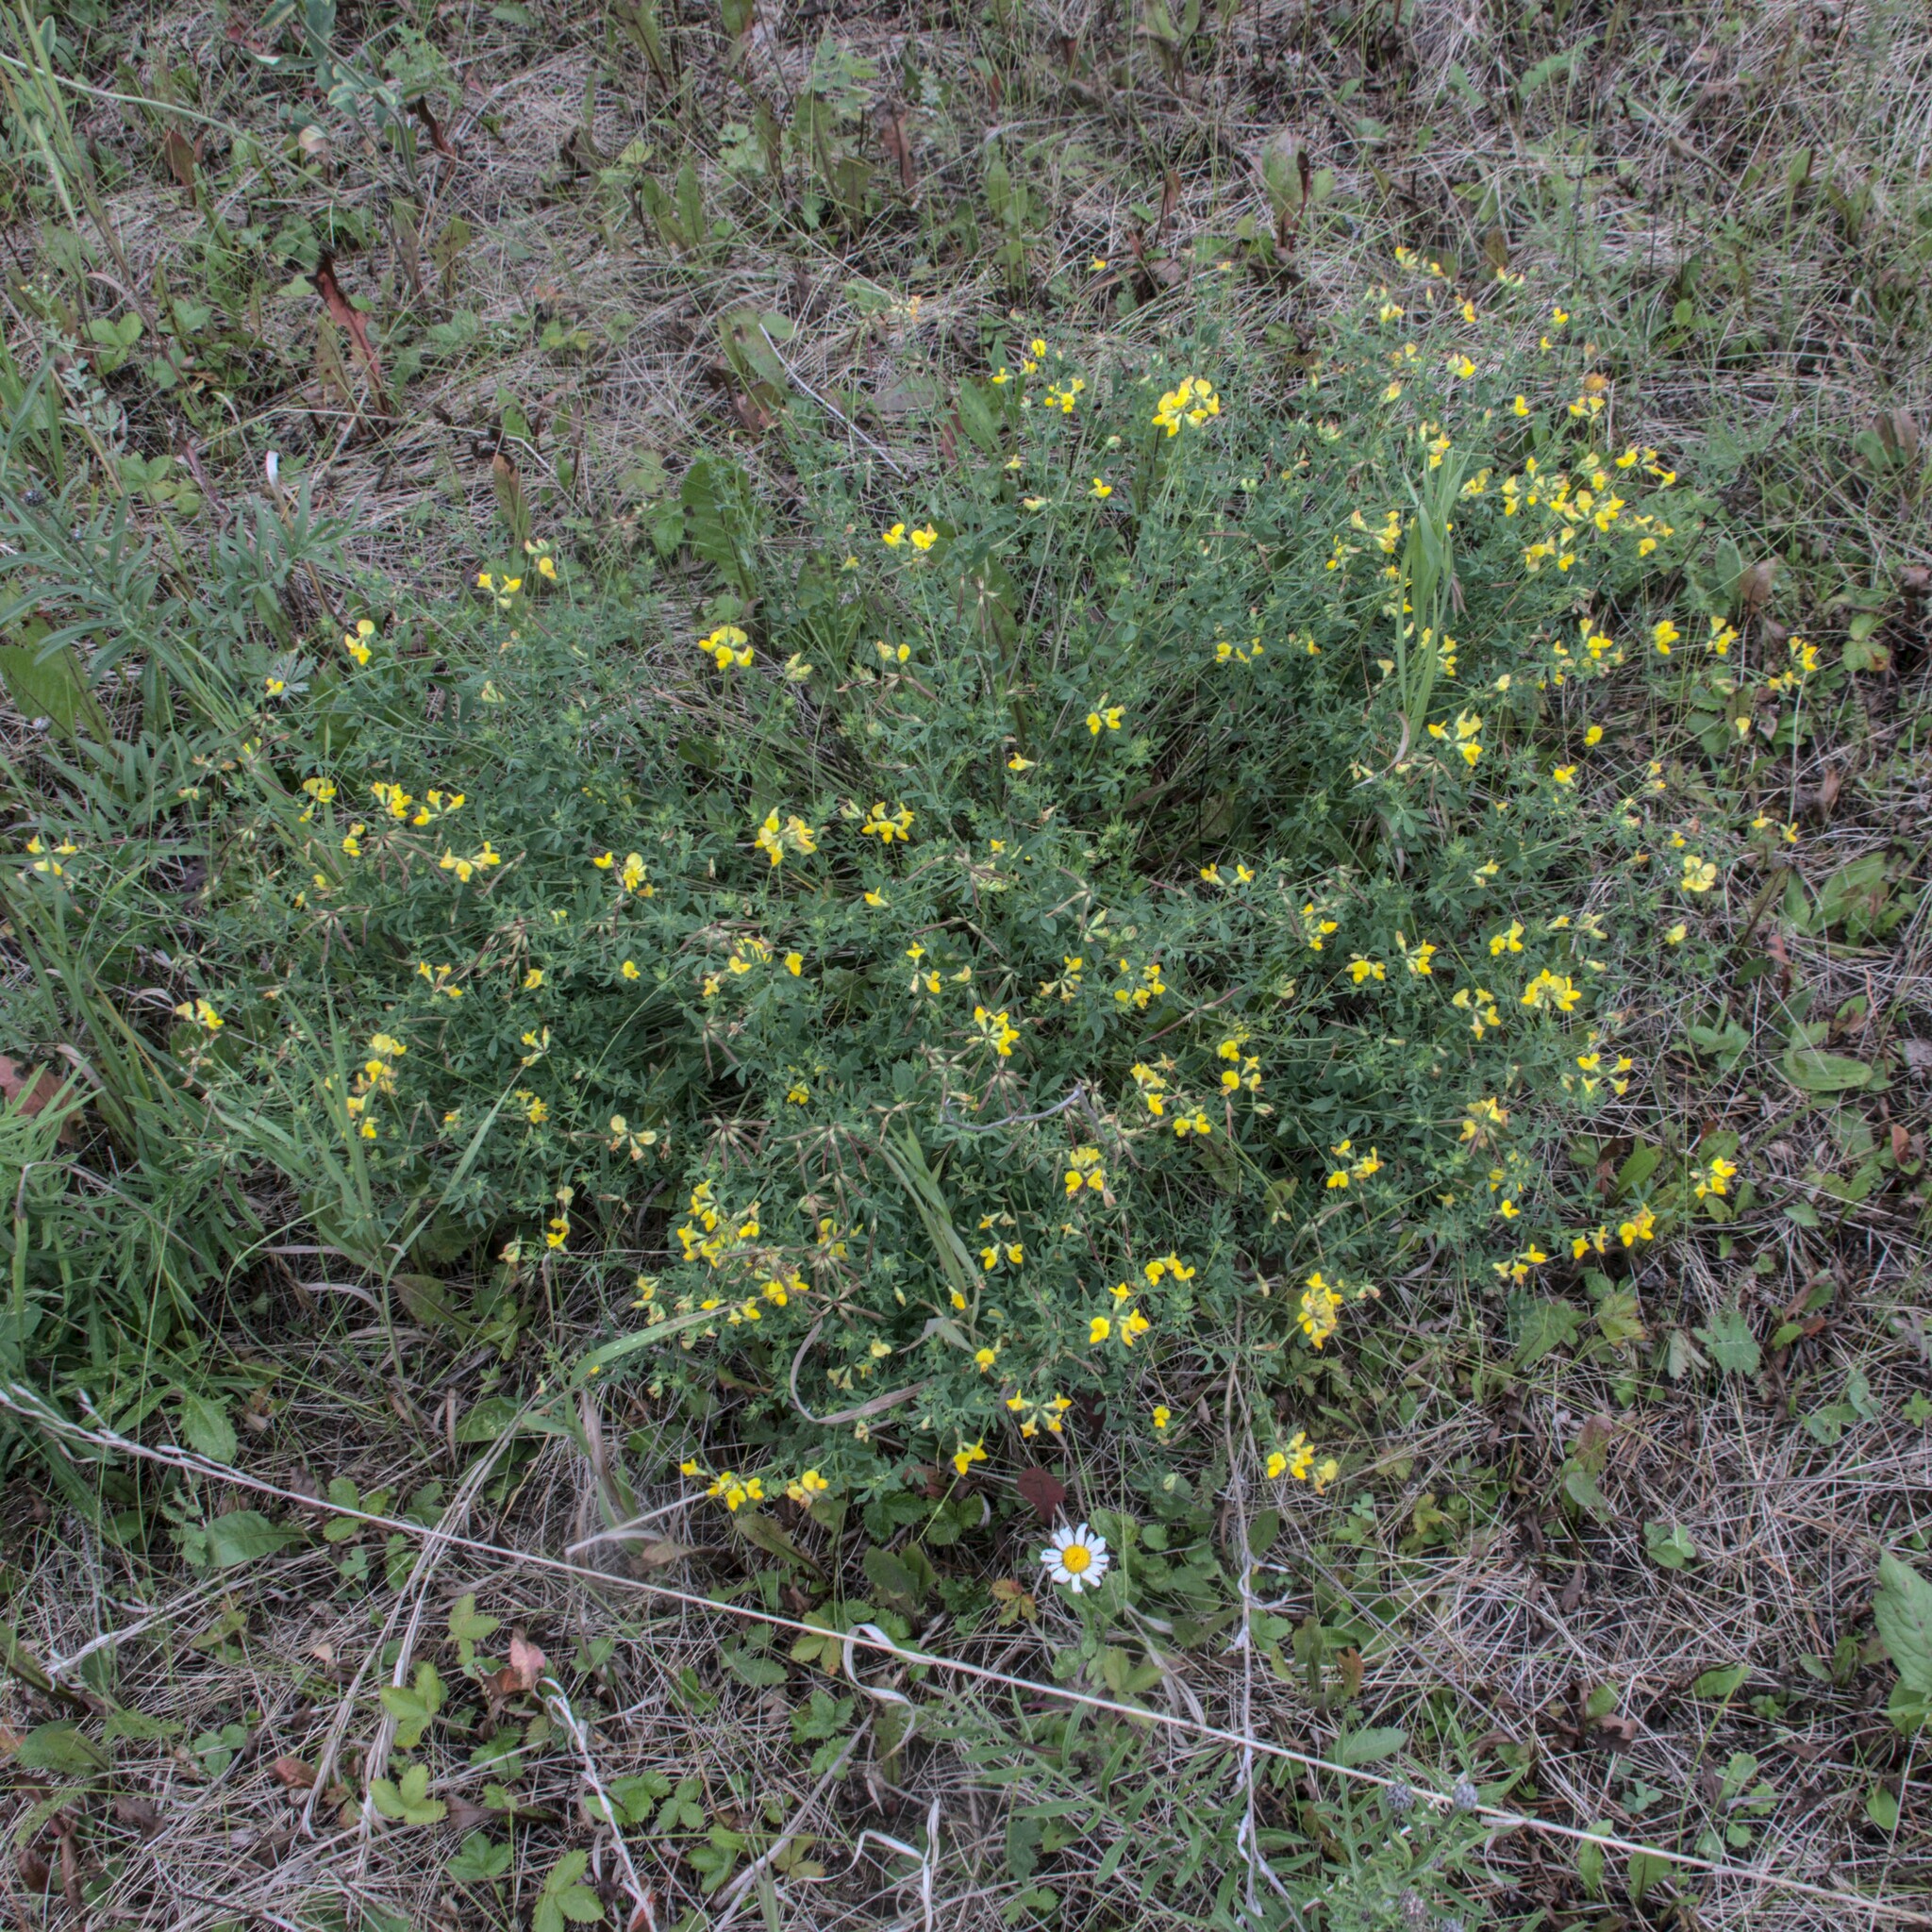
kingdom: Plantae
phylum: Tracheophyta
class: Magnoliopsida
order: Fabales
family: Fabaceae
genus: Lotus
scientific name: Lotus corniculatus
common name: Common bird's-foot-trefoil
